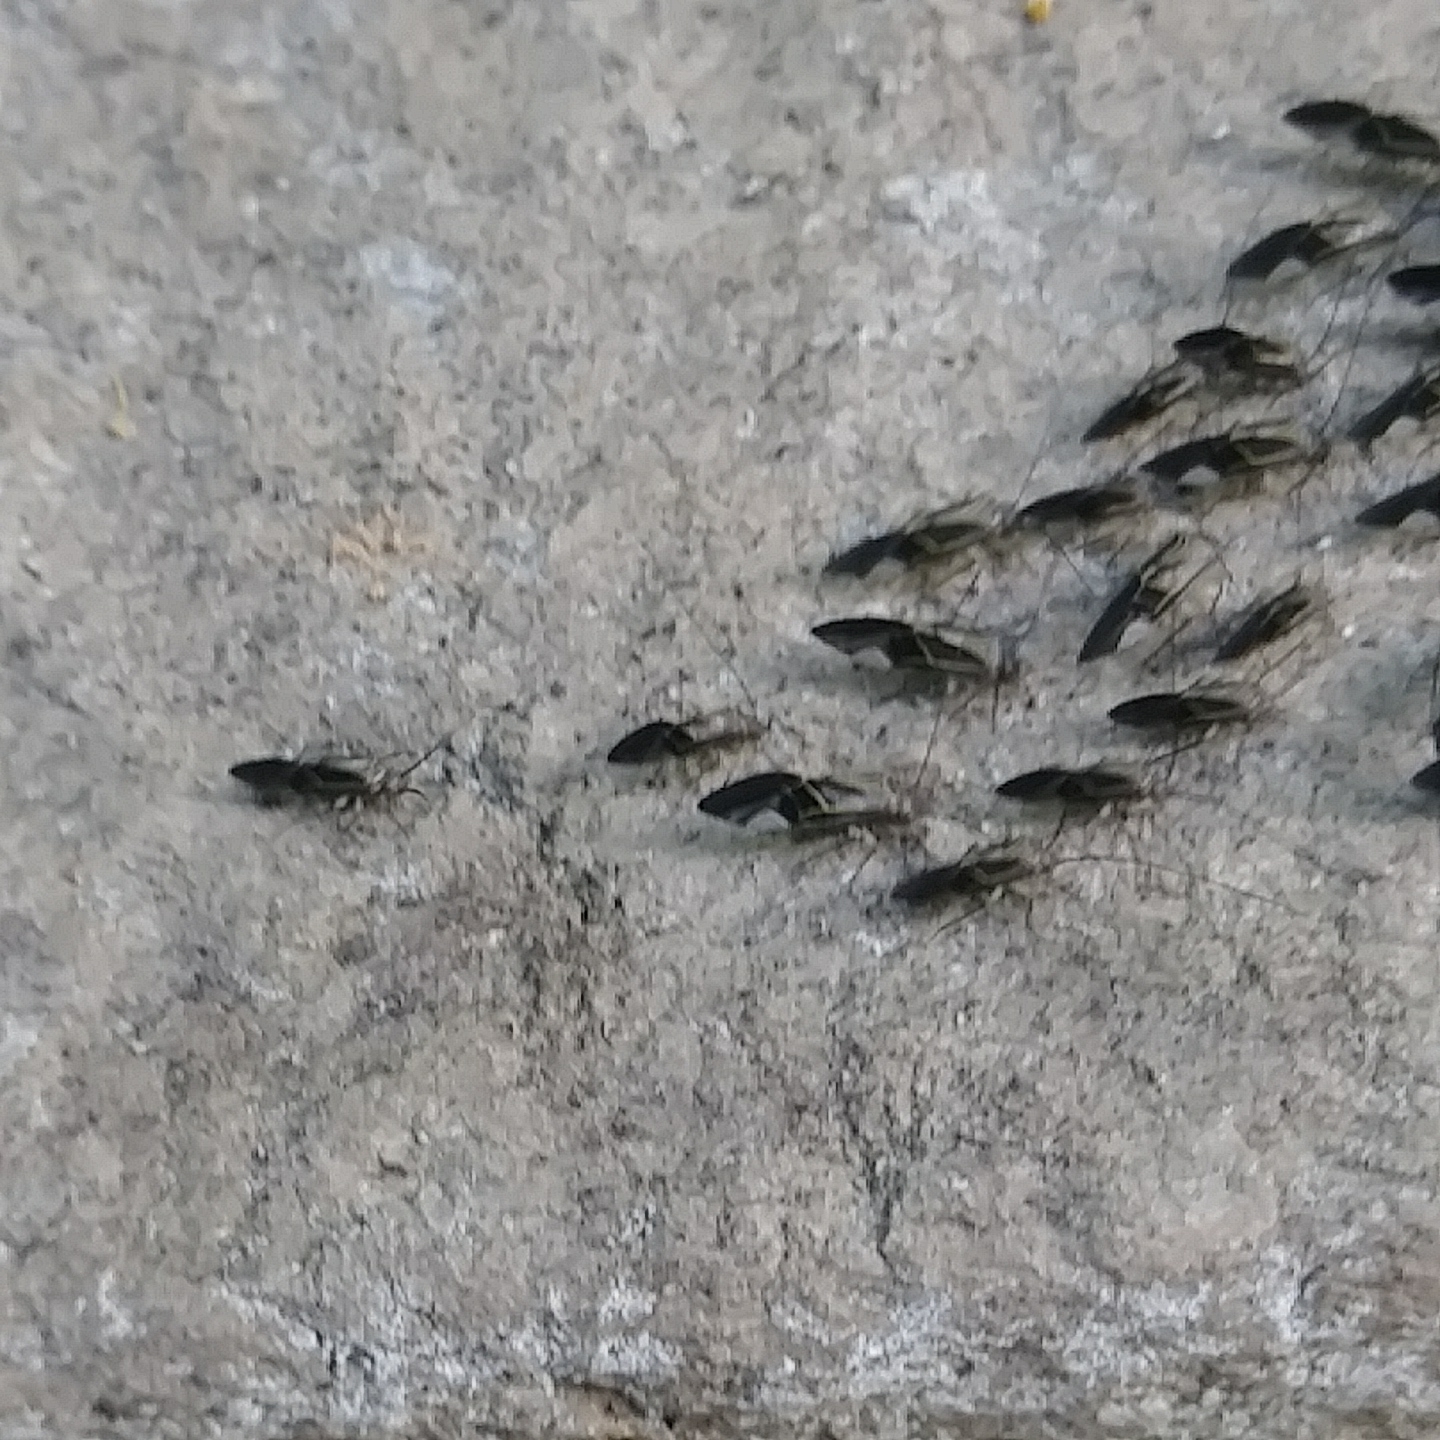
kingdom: Animalia
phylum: Arthropoda
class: Insecta
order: Psocodea
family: Psocidae
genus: Cerastipsocus
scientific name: Cerastipsocus venosus
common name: Tree cattle
